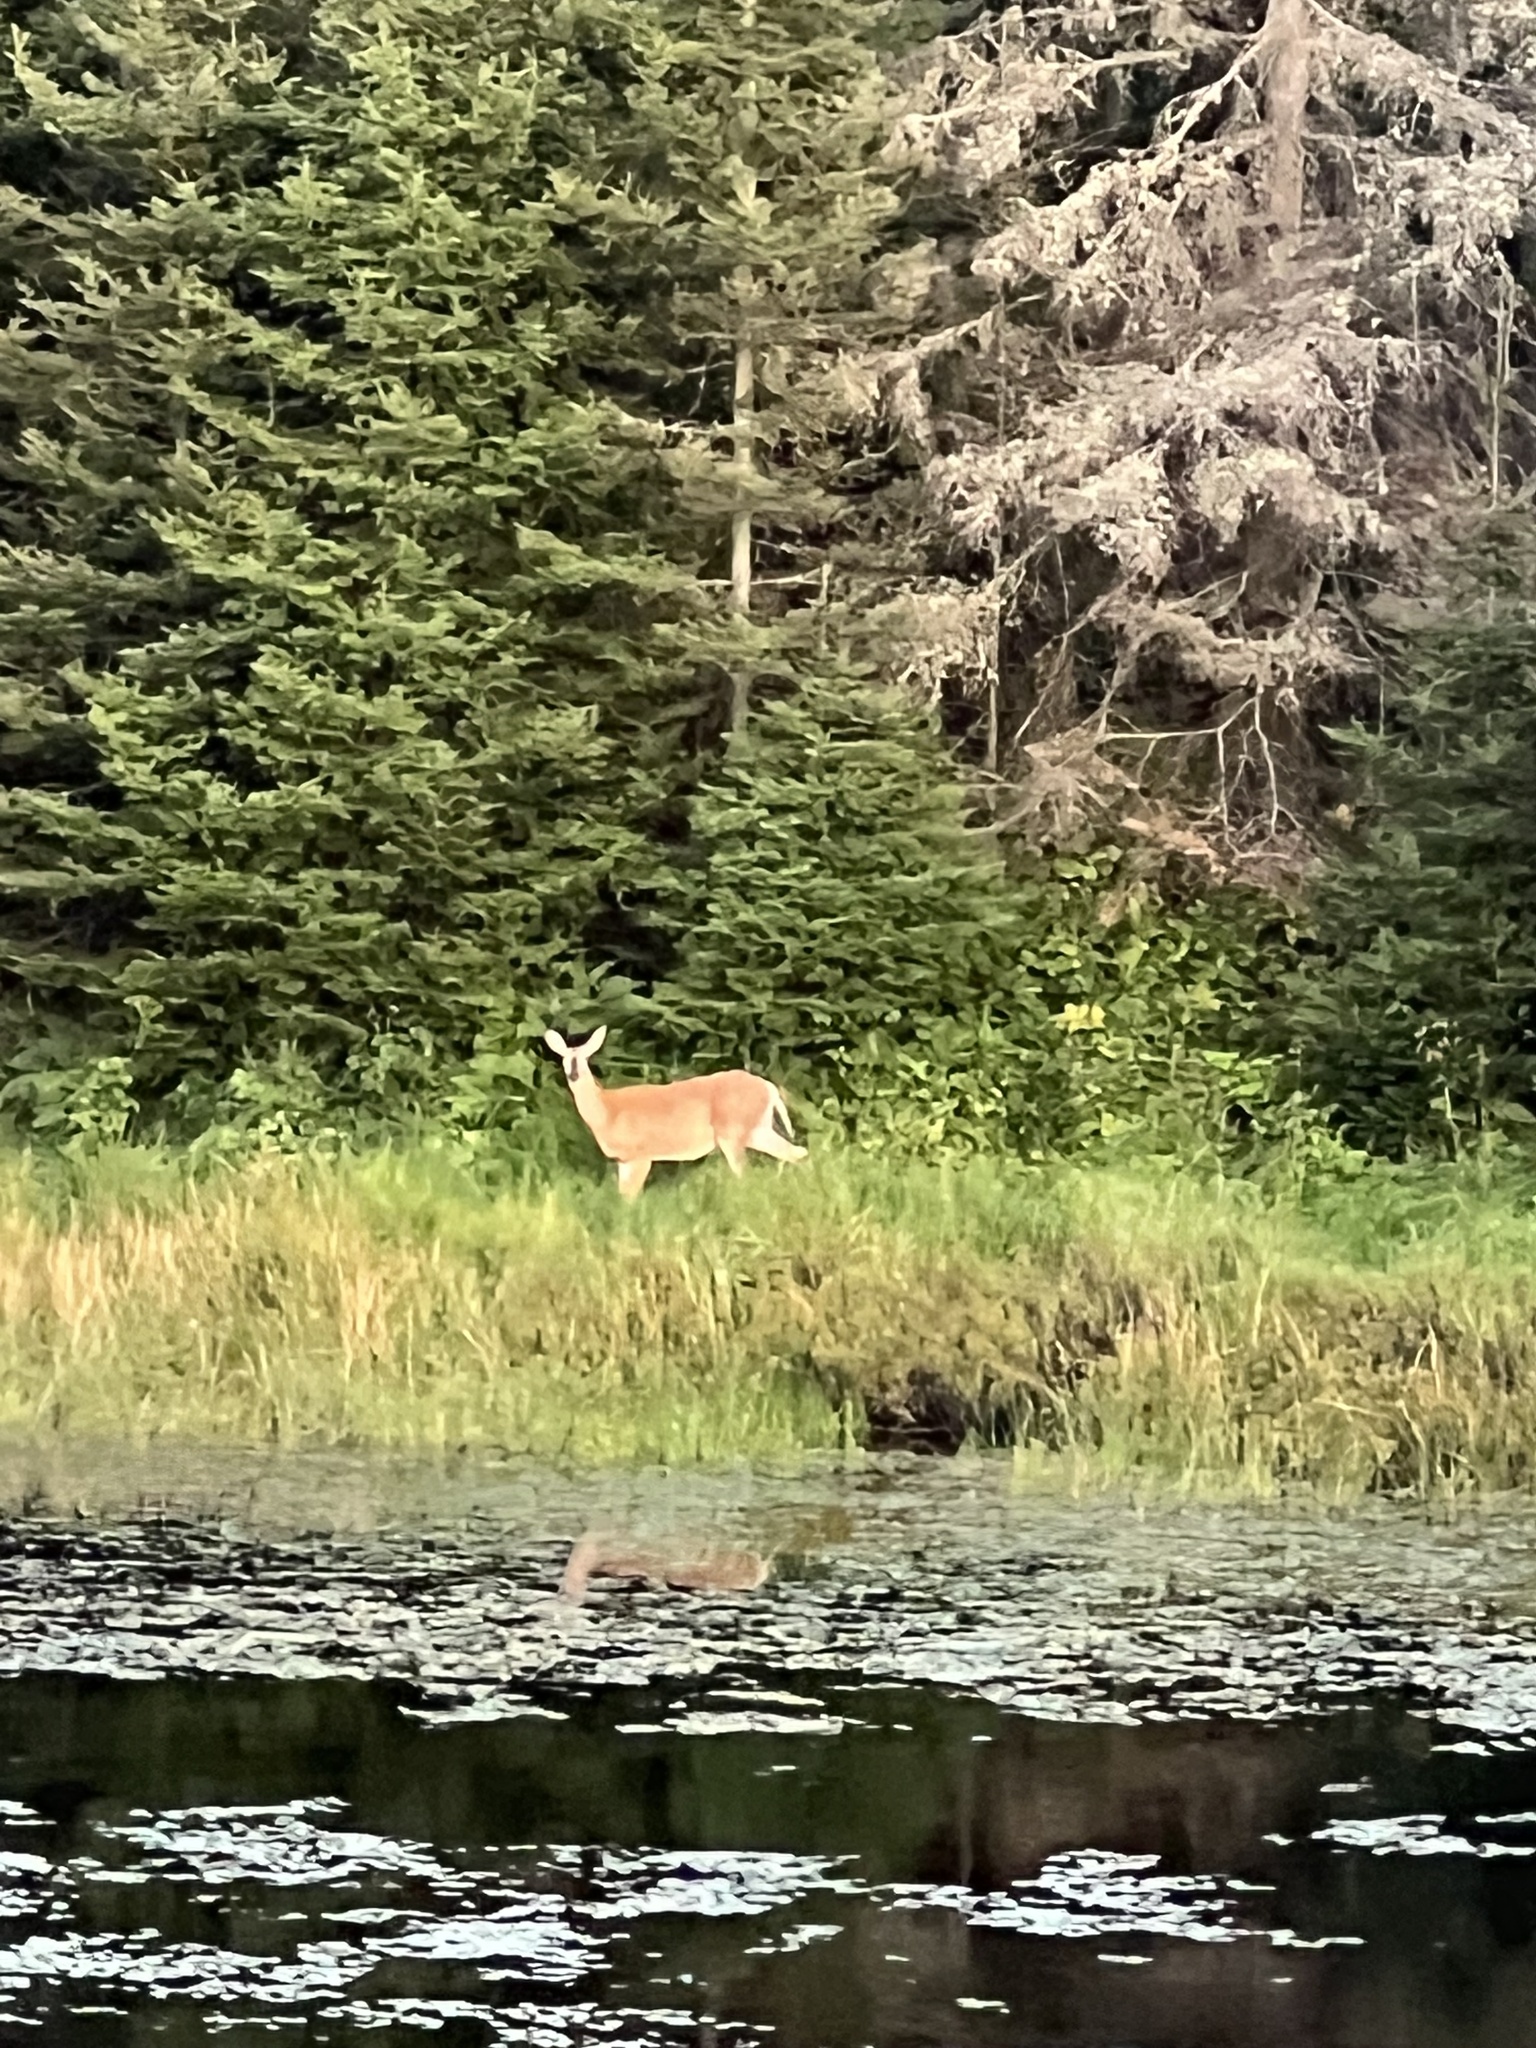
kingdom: Animalia
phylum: Chordata
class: Mammalia
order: Artiodactyla
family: Cervidae
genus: Odocoileus
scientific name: Odocoileus virginianus
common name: White-tailed deer
